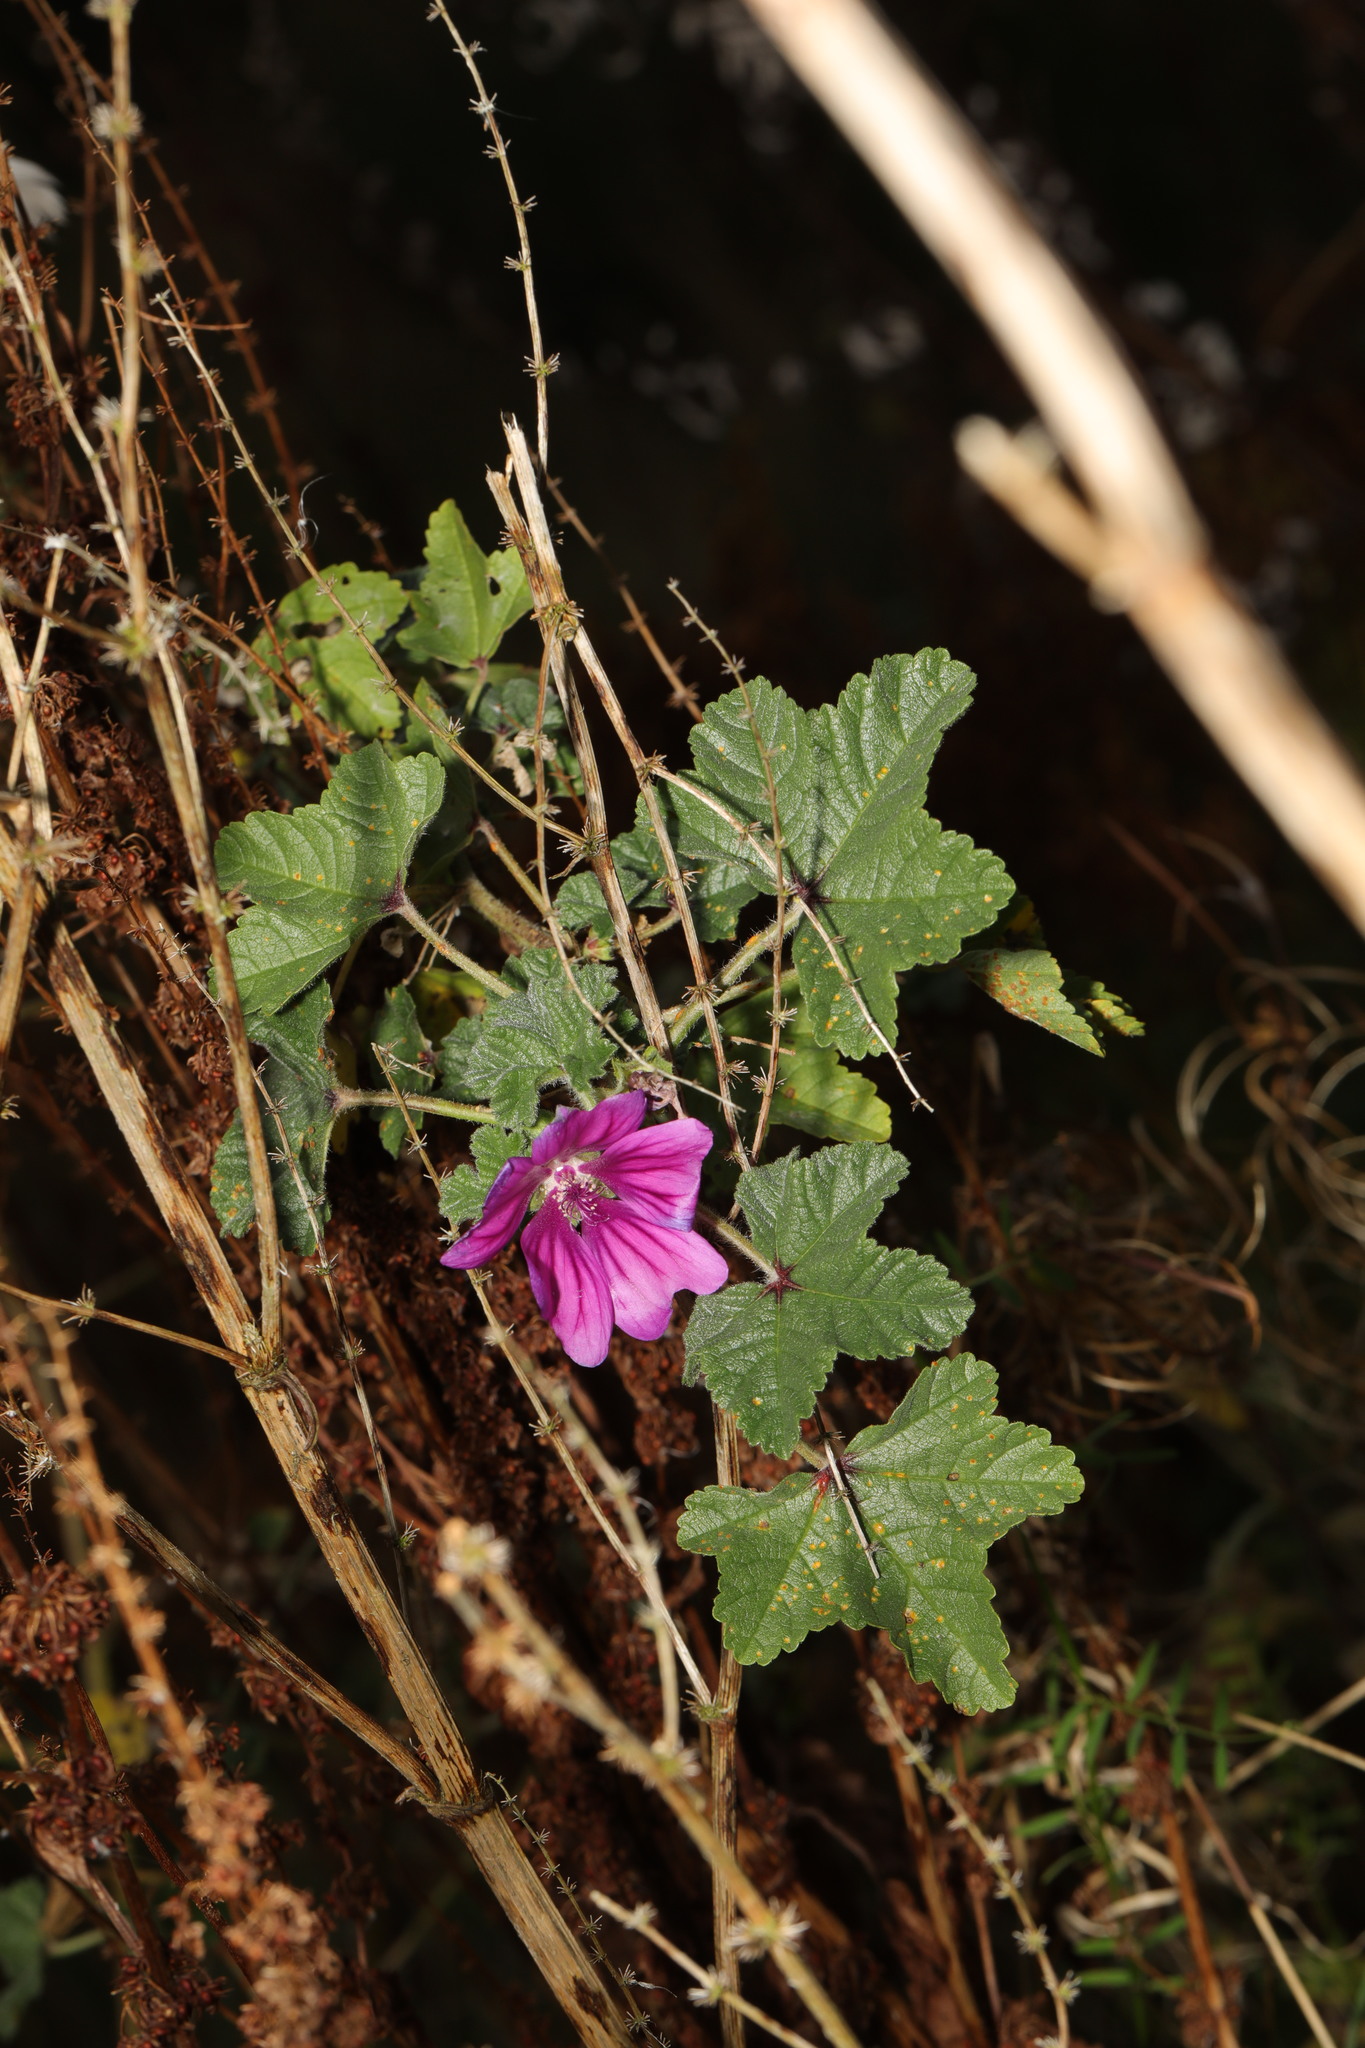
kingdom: Plantae
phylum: Tracheophyta
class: Magnoliopsida
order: Malvales
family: Malvaceae
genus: Malva
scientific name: Malva sylvestris
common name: Common mallow
